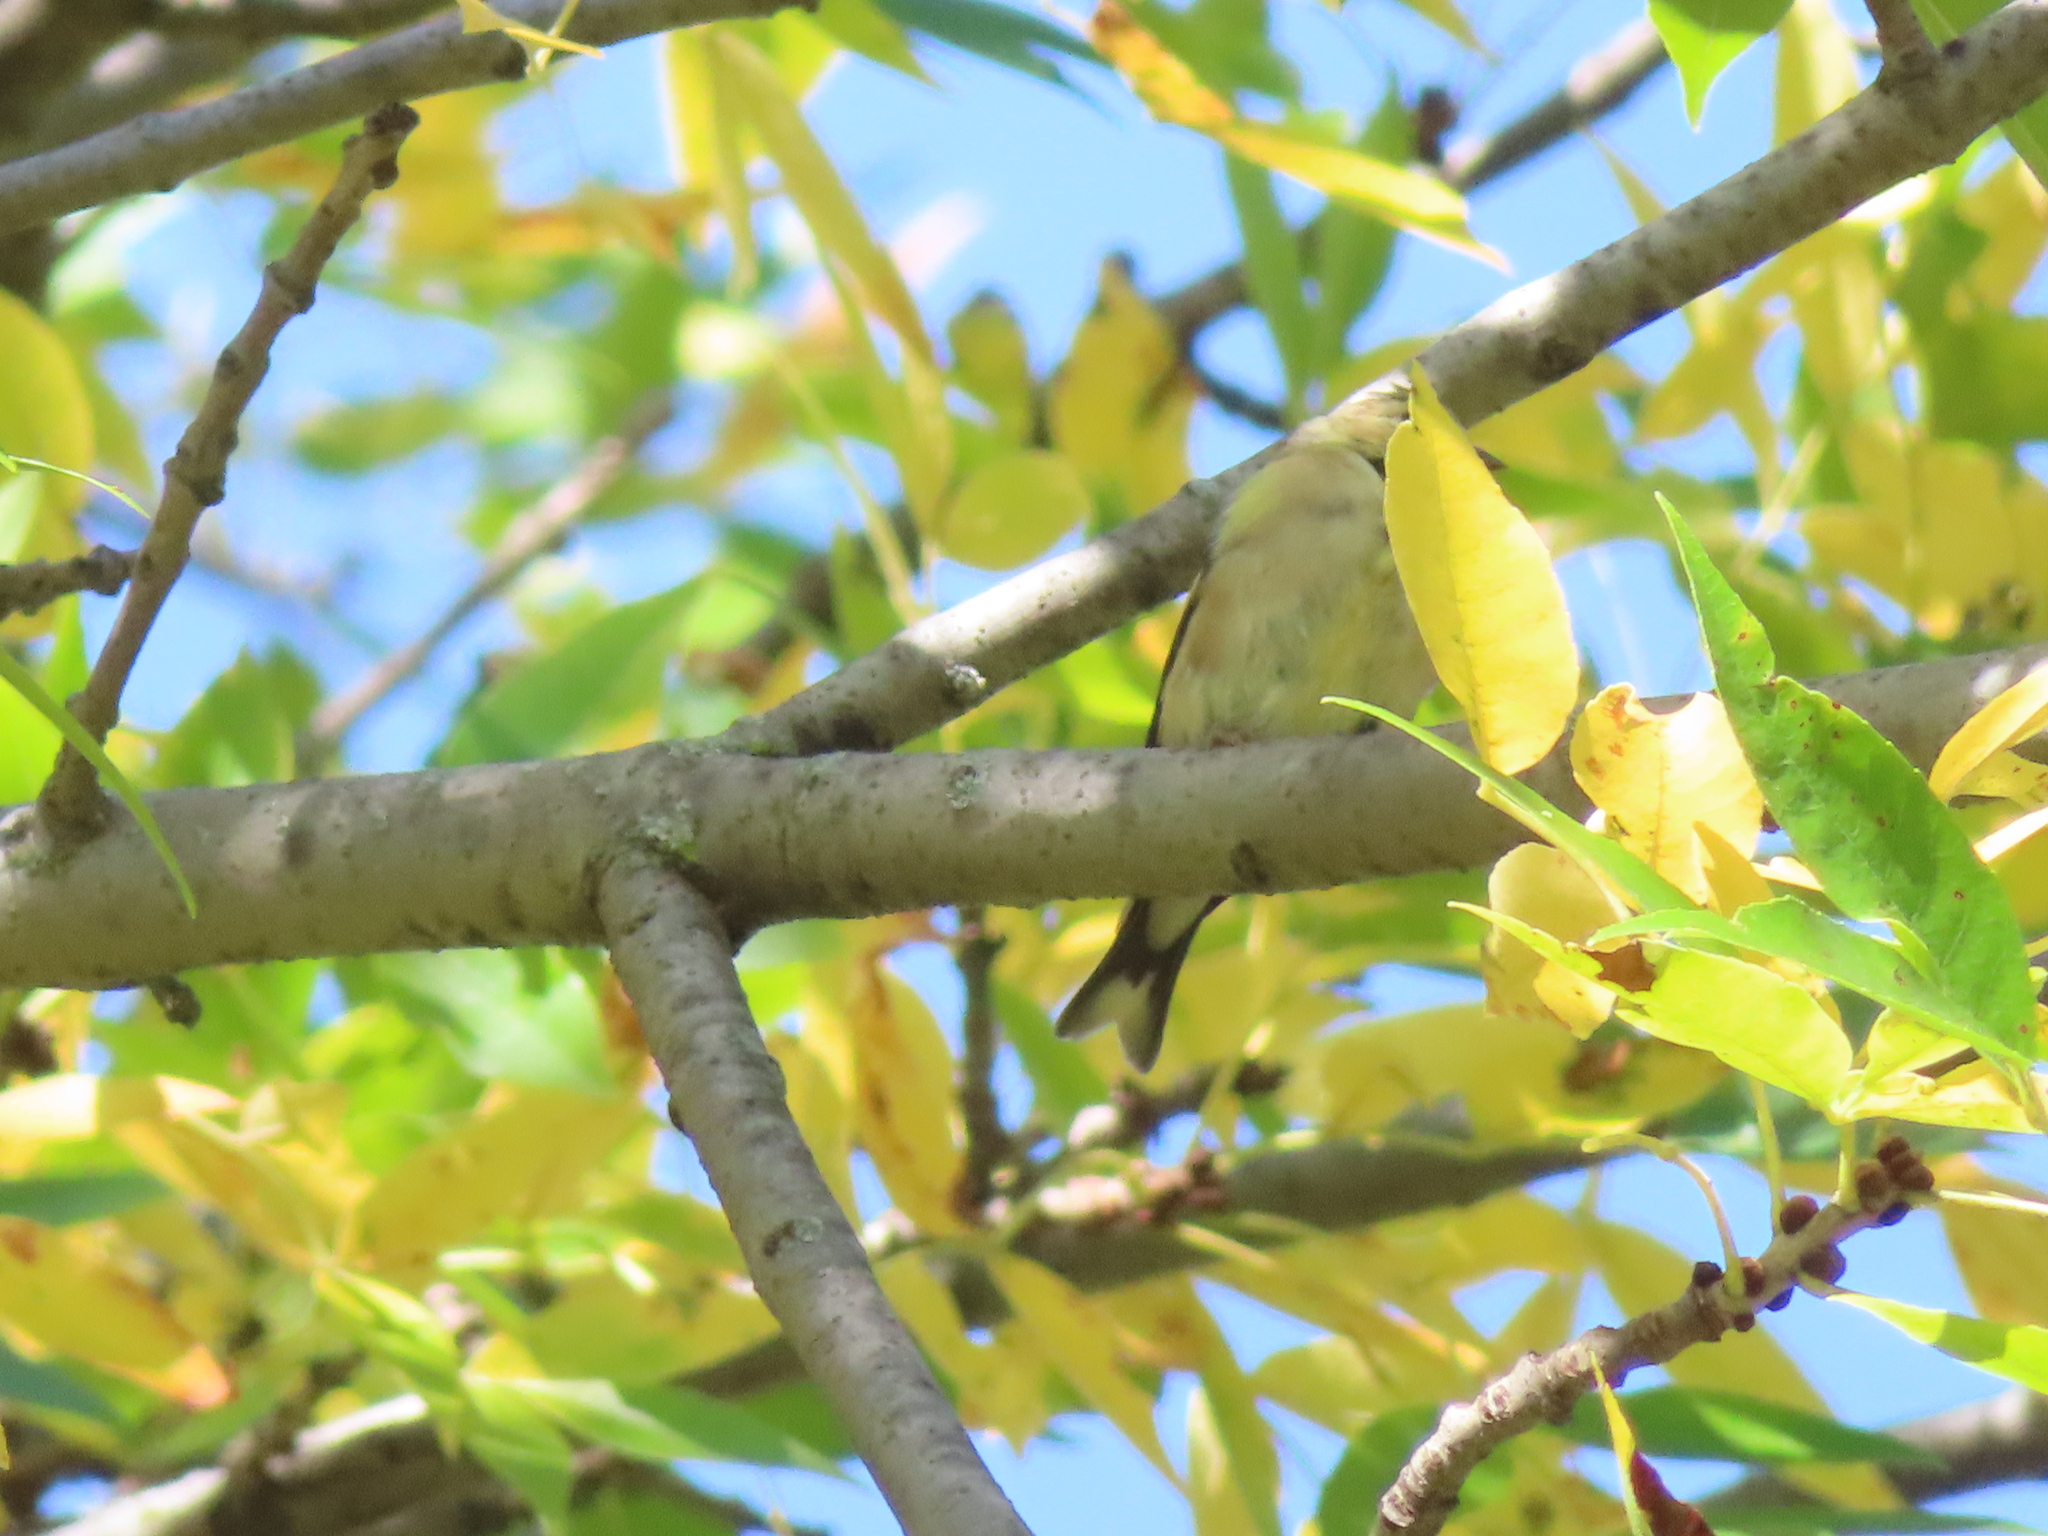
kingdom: Animalia
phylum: Chordata
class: Aves
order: Passeriformes
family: Fringillidae
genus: Spinus
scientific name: Spinus tristis
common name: American goldfinch
